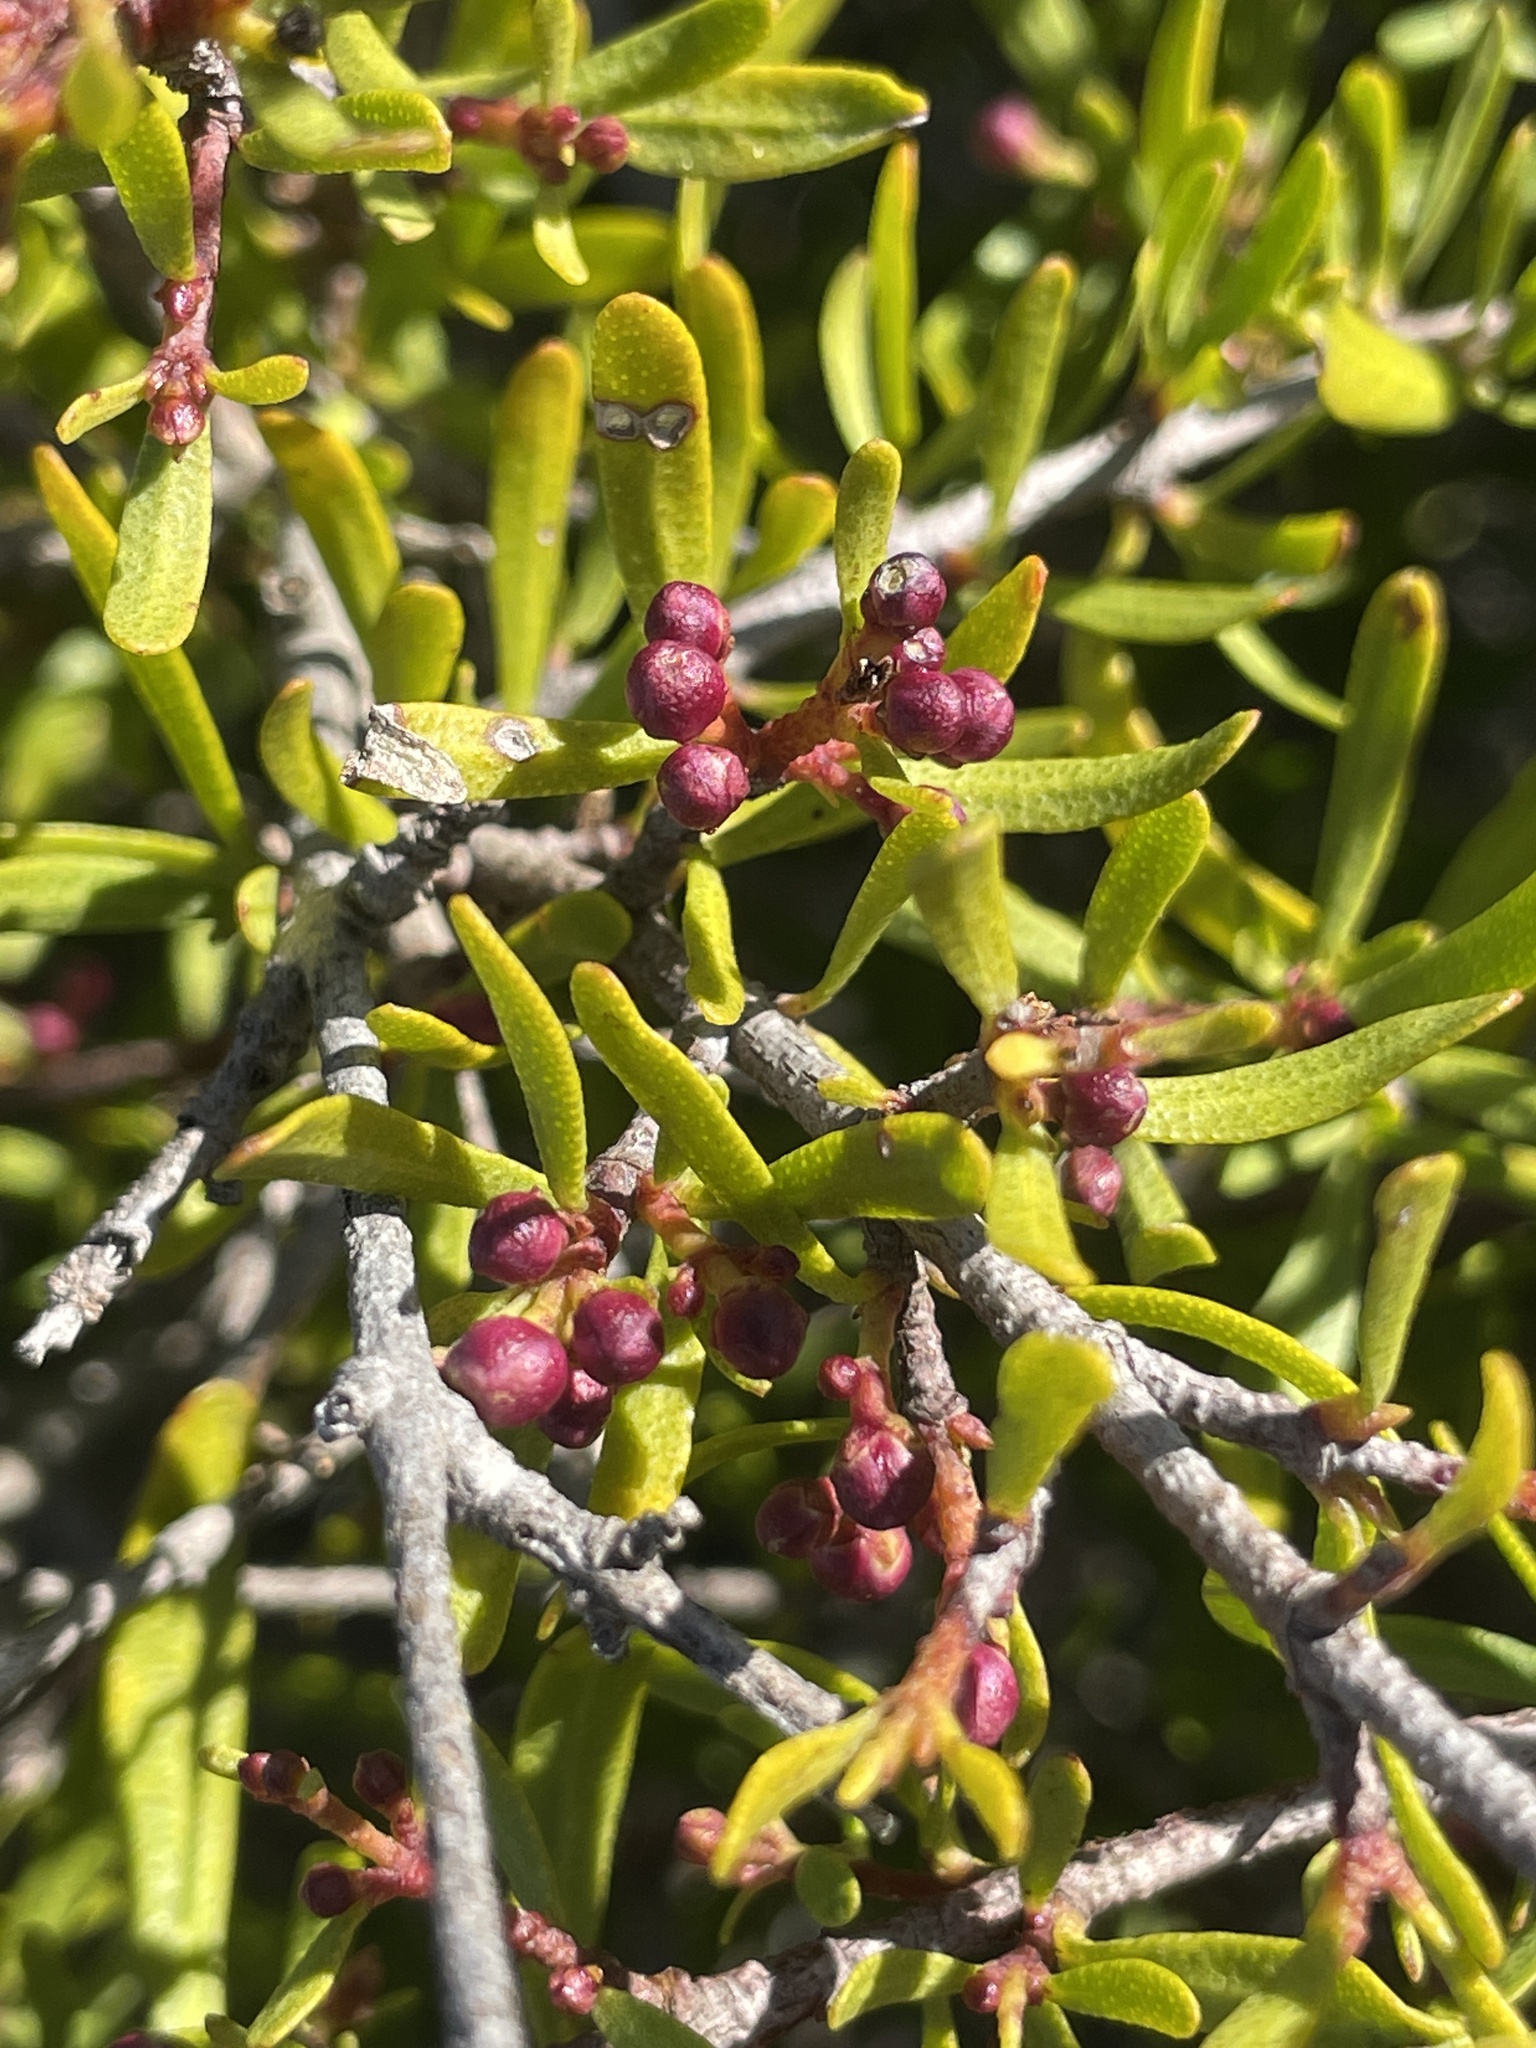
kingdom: Plantae
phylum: Tracheophyta
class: Magnoliopsida
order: Sapindales
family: Rutaceae
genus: Cneoridium
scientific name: Cneoridium dumosum
